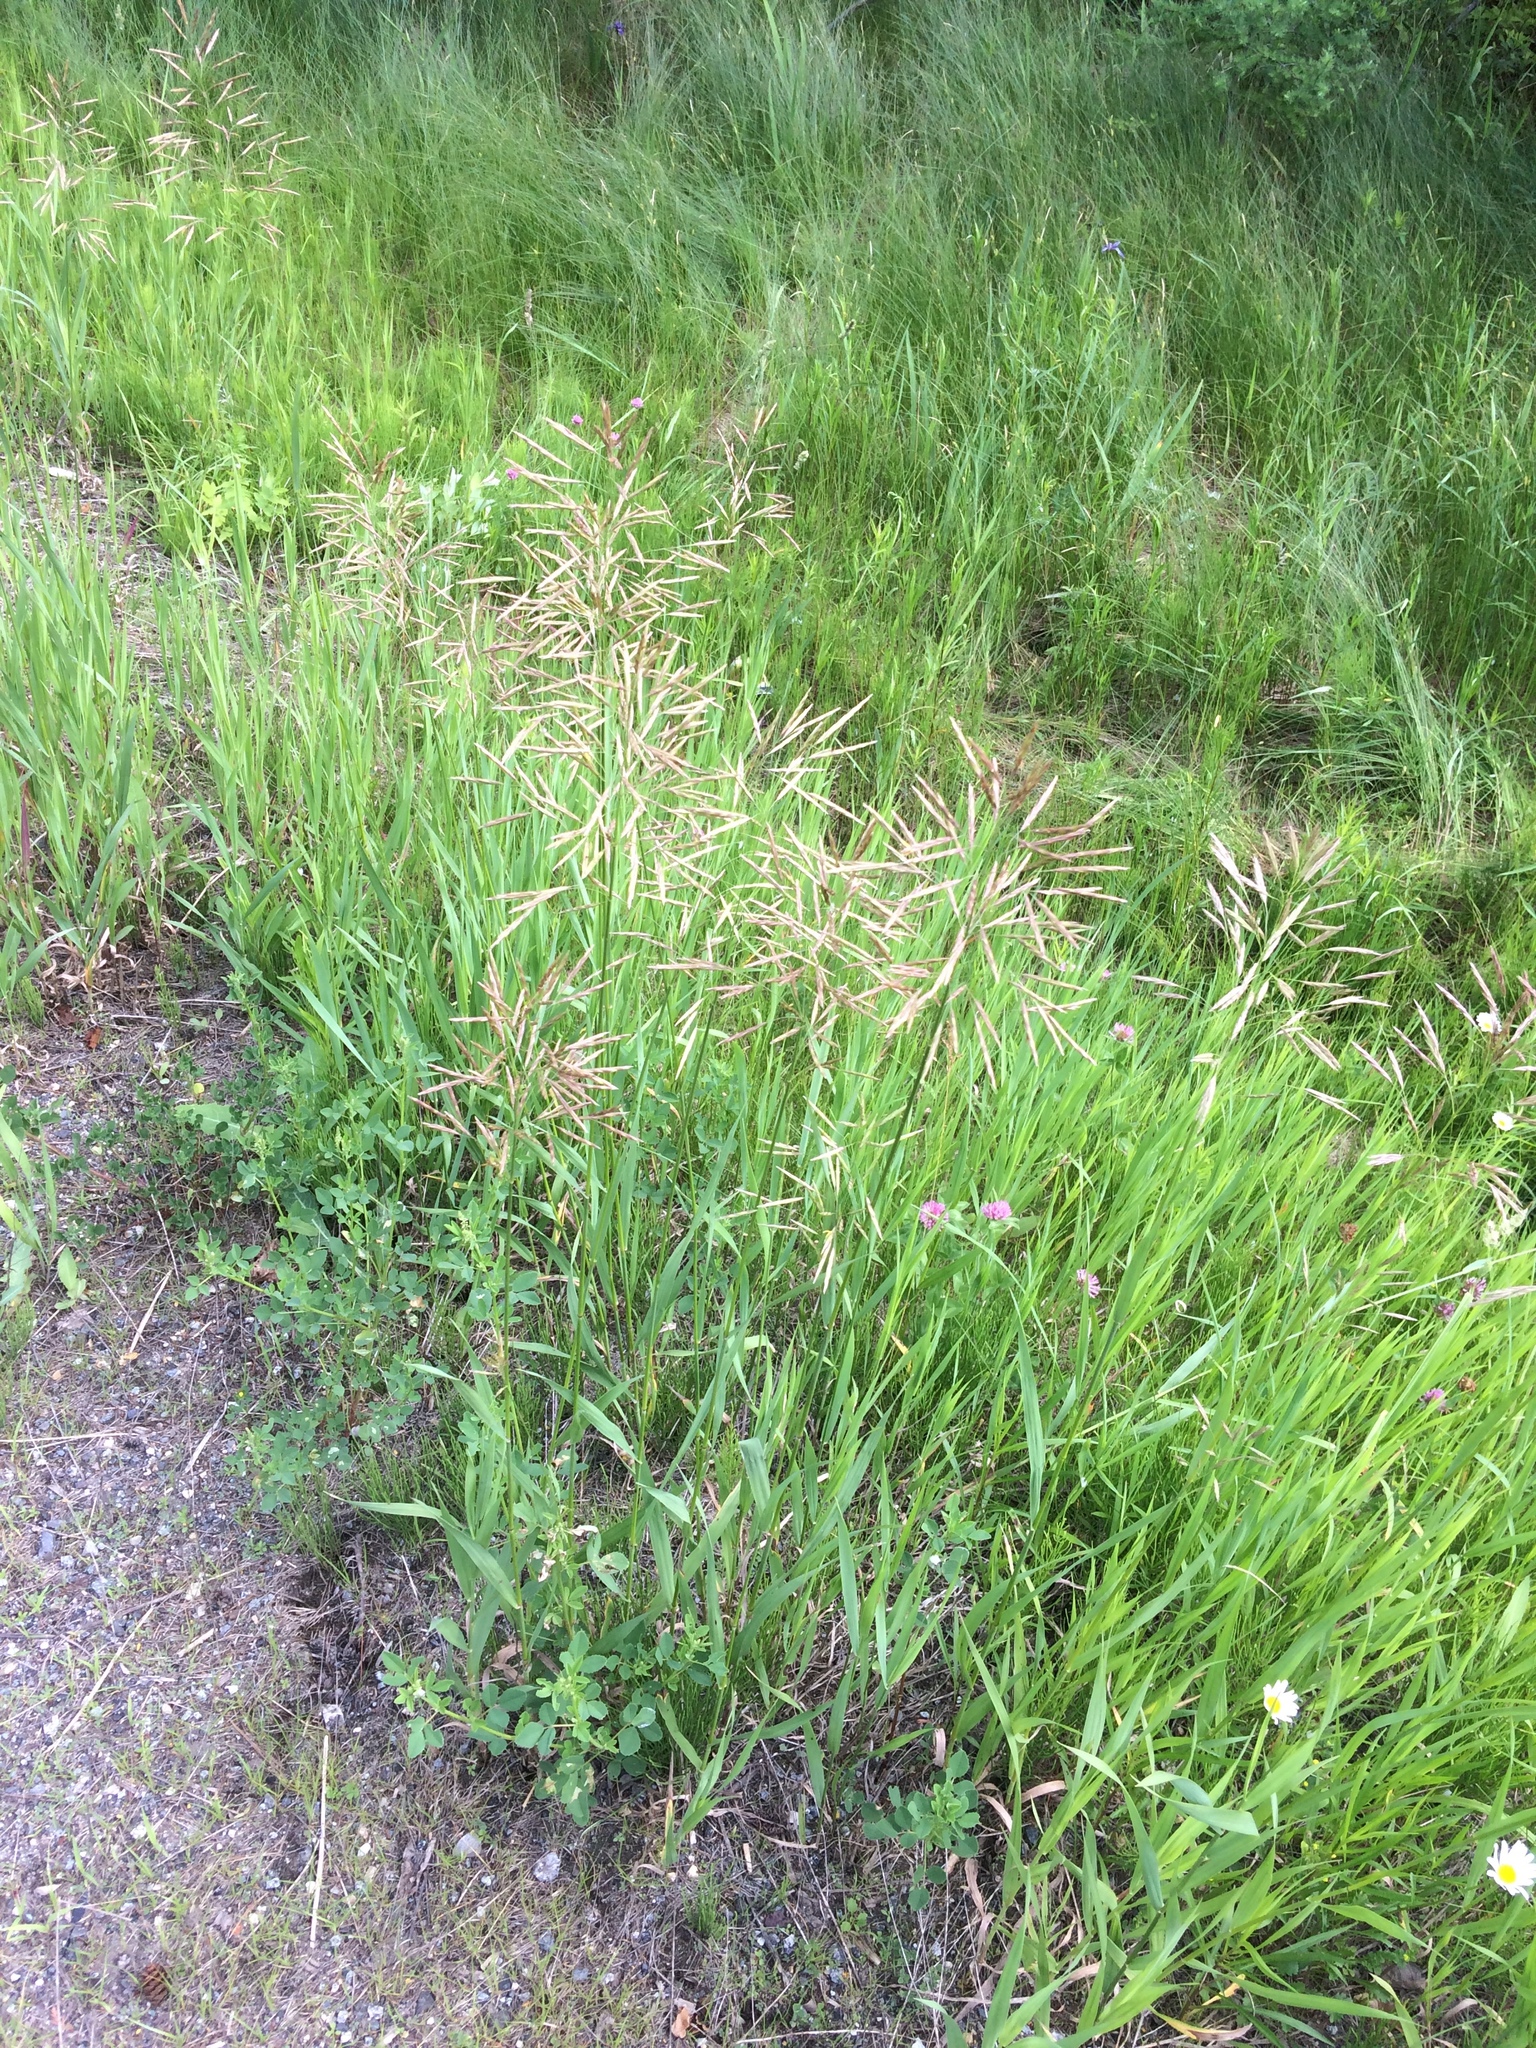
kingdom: Plantae
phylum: Tracheophyta
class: Liliopsida
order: Poales
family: Poaceae
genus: Bromus
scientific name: Bromus inermis
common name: Smooth brome
